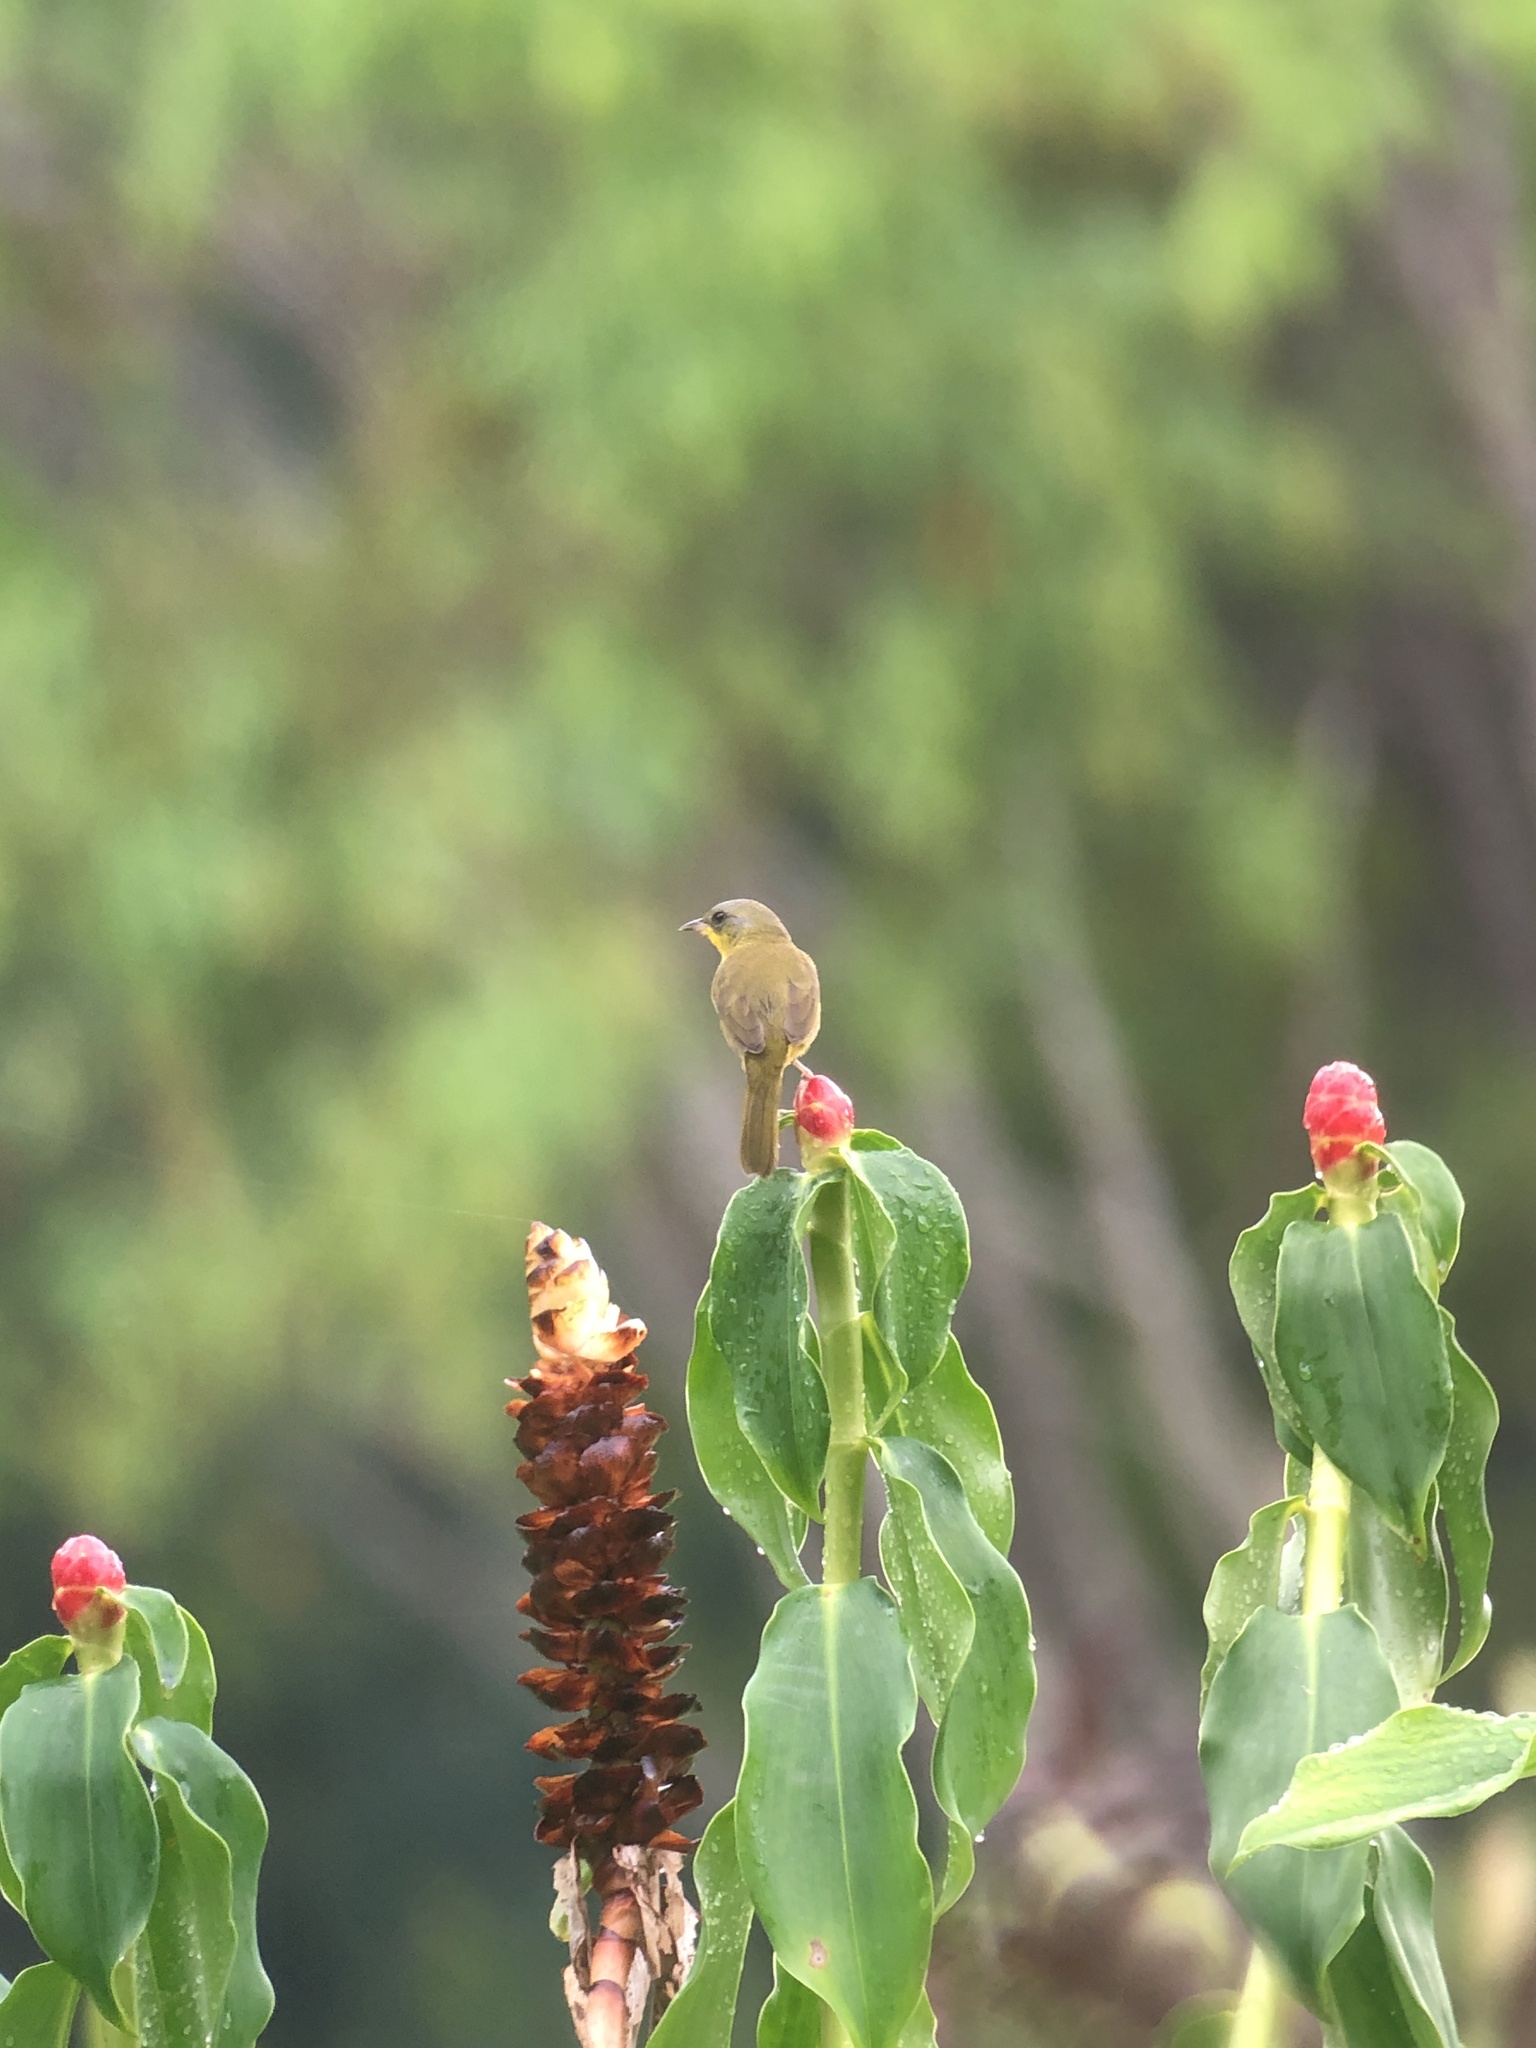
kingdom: Animalia
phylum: Chordata
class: Aves
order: Passeriformes
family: Parulidae
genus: Geothlypis
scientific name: Geothlypis poliocephala
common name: Gray-crowned yellowthroat
